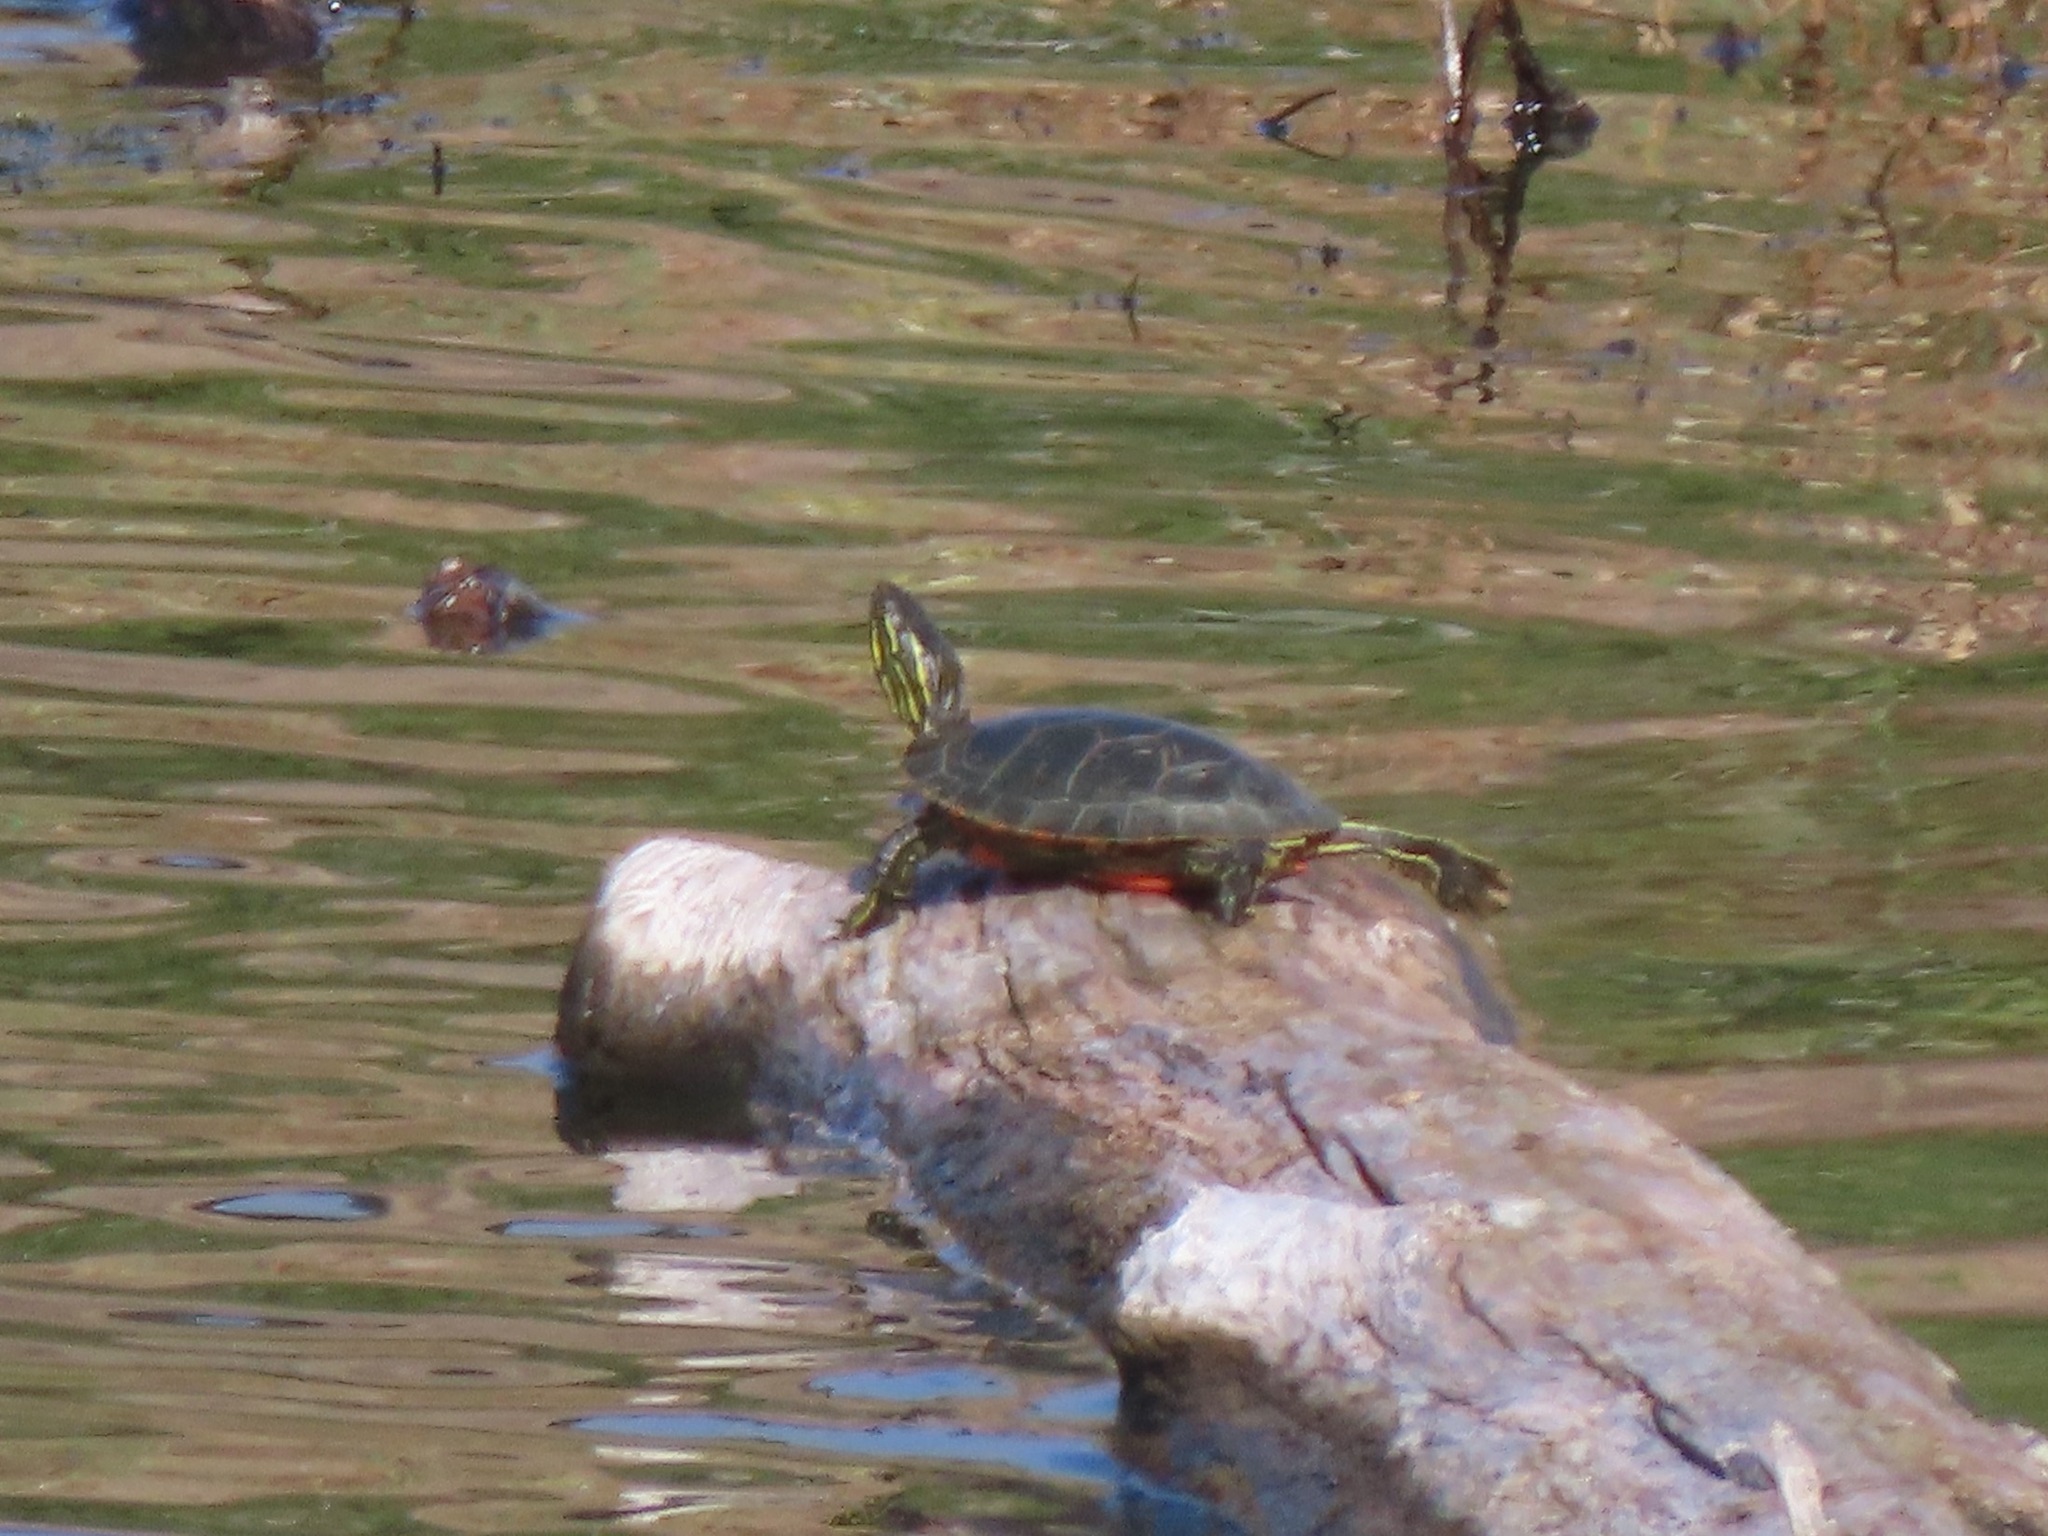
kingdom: Animalia
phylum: Chordata
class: Testudines
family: Emydidae
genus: Chrysemys
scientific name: Chrysemys picta
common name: Painted turtle
